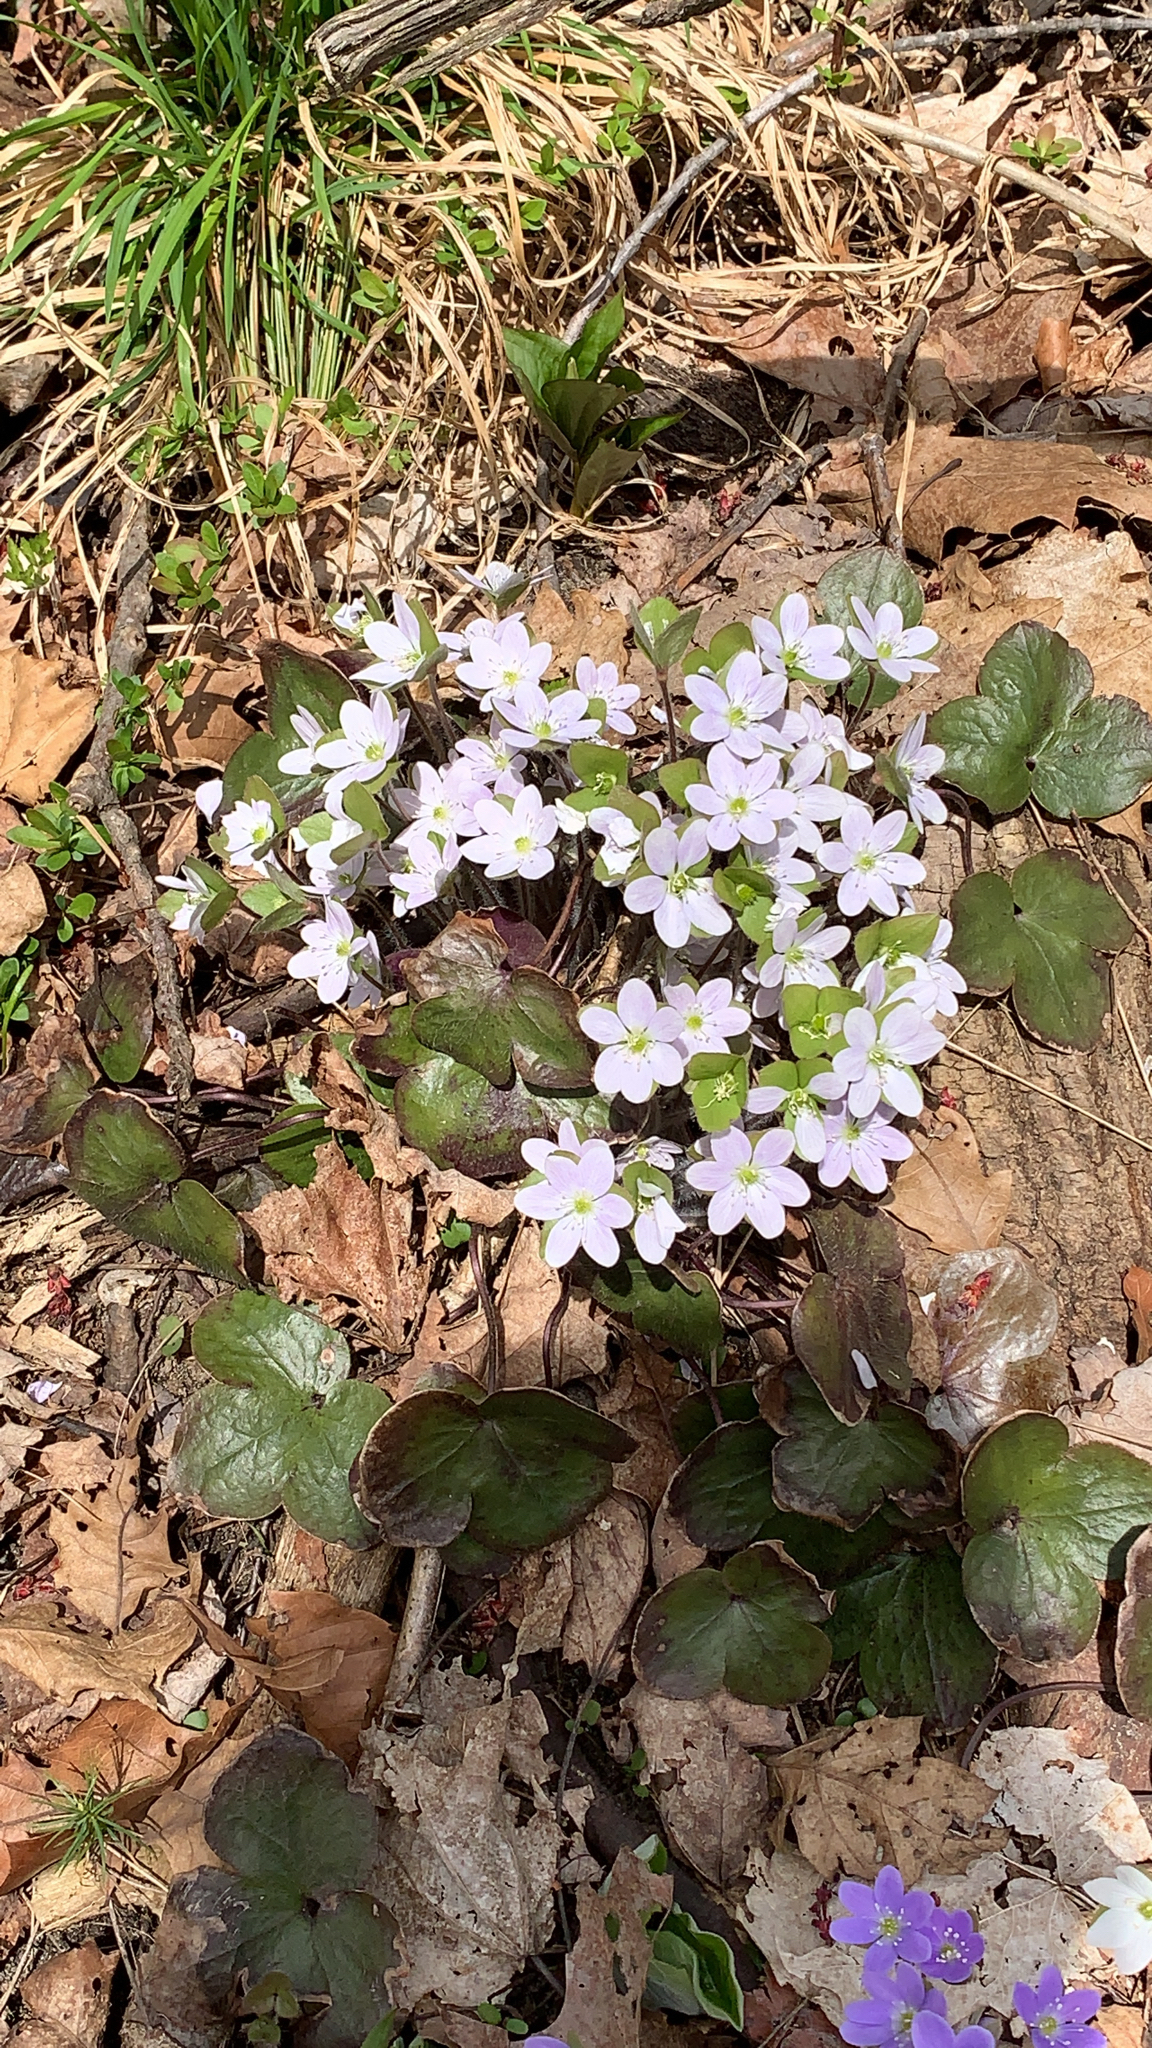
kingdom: Plantae
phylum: Tracheophyta
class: Magnoliopsida
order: Ranunculales
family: Ranunculaceae
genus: Hepatica
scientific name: Hepatica americana
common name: American hepatica
